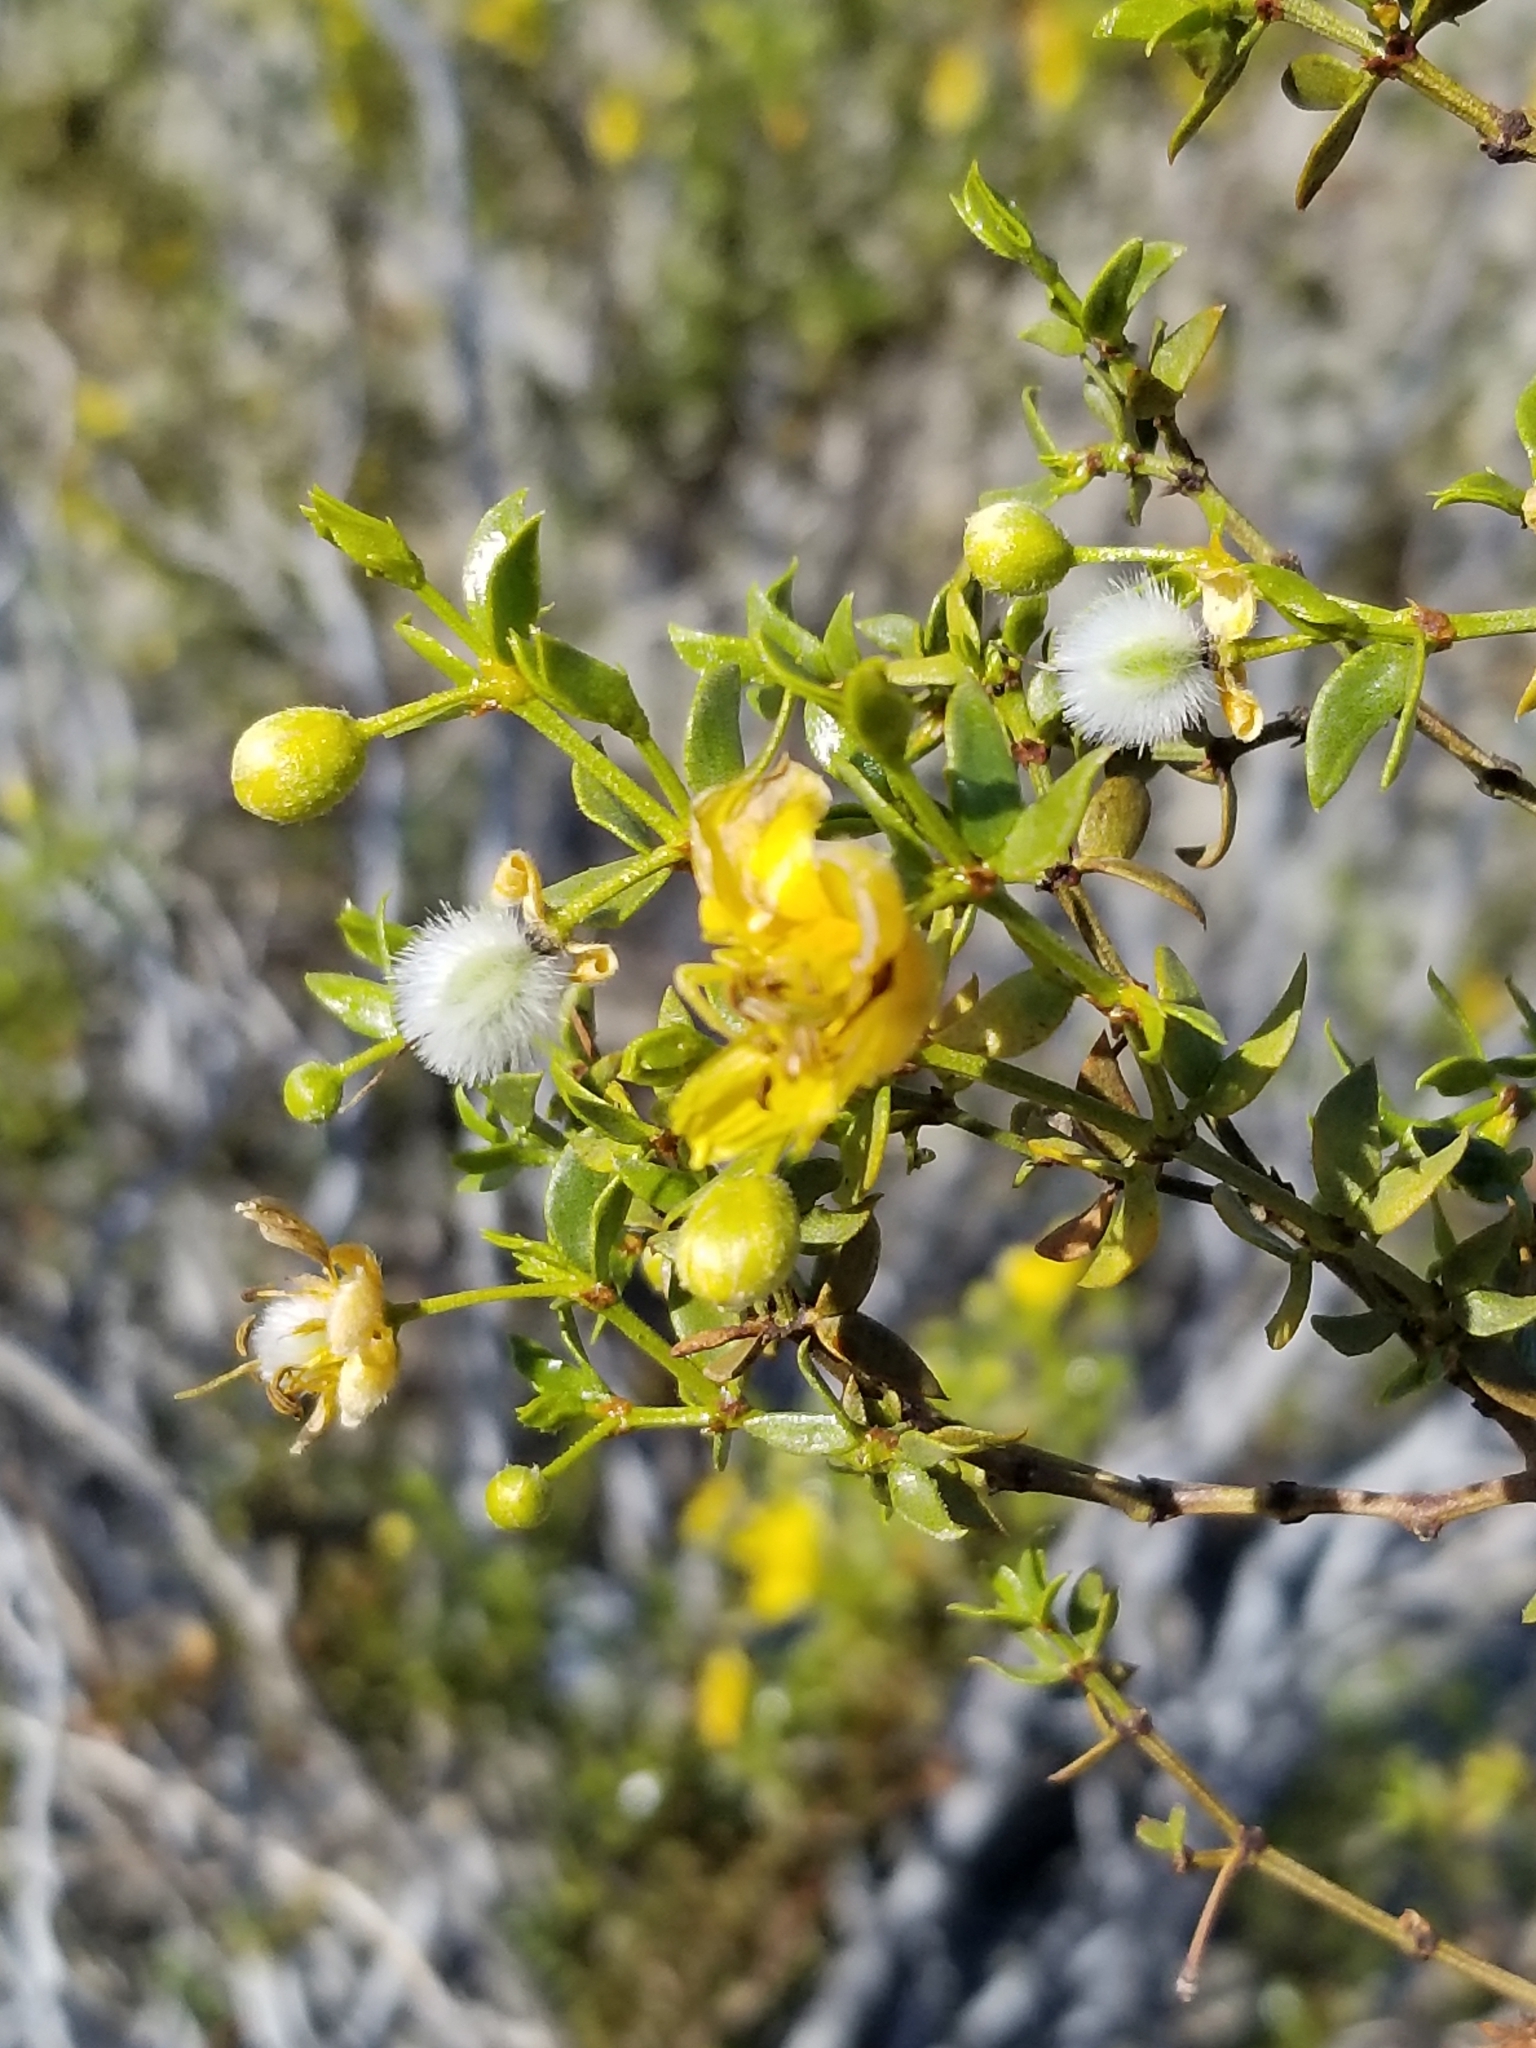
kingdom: Plantae
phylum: Tracheophyta
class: Magnoliopsida
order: Zygophyllales
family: Zygophyllaceae
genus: Larrea
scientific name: Larrea tridentata
